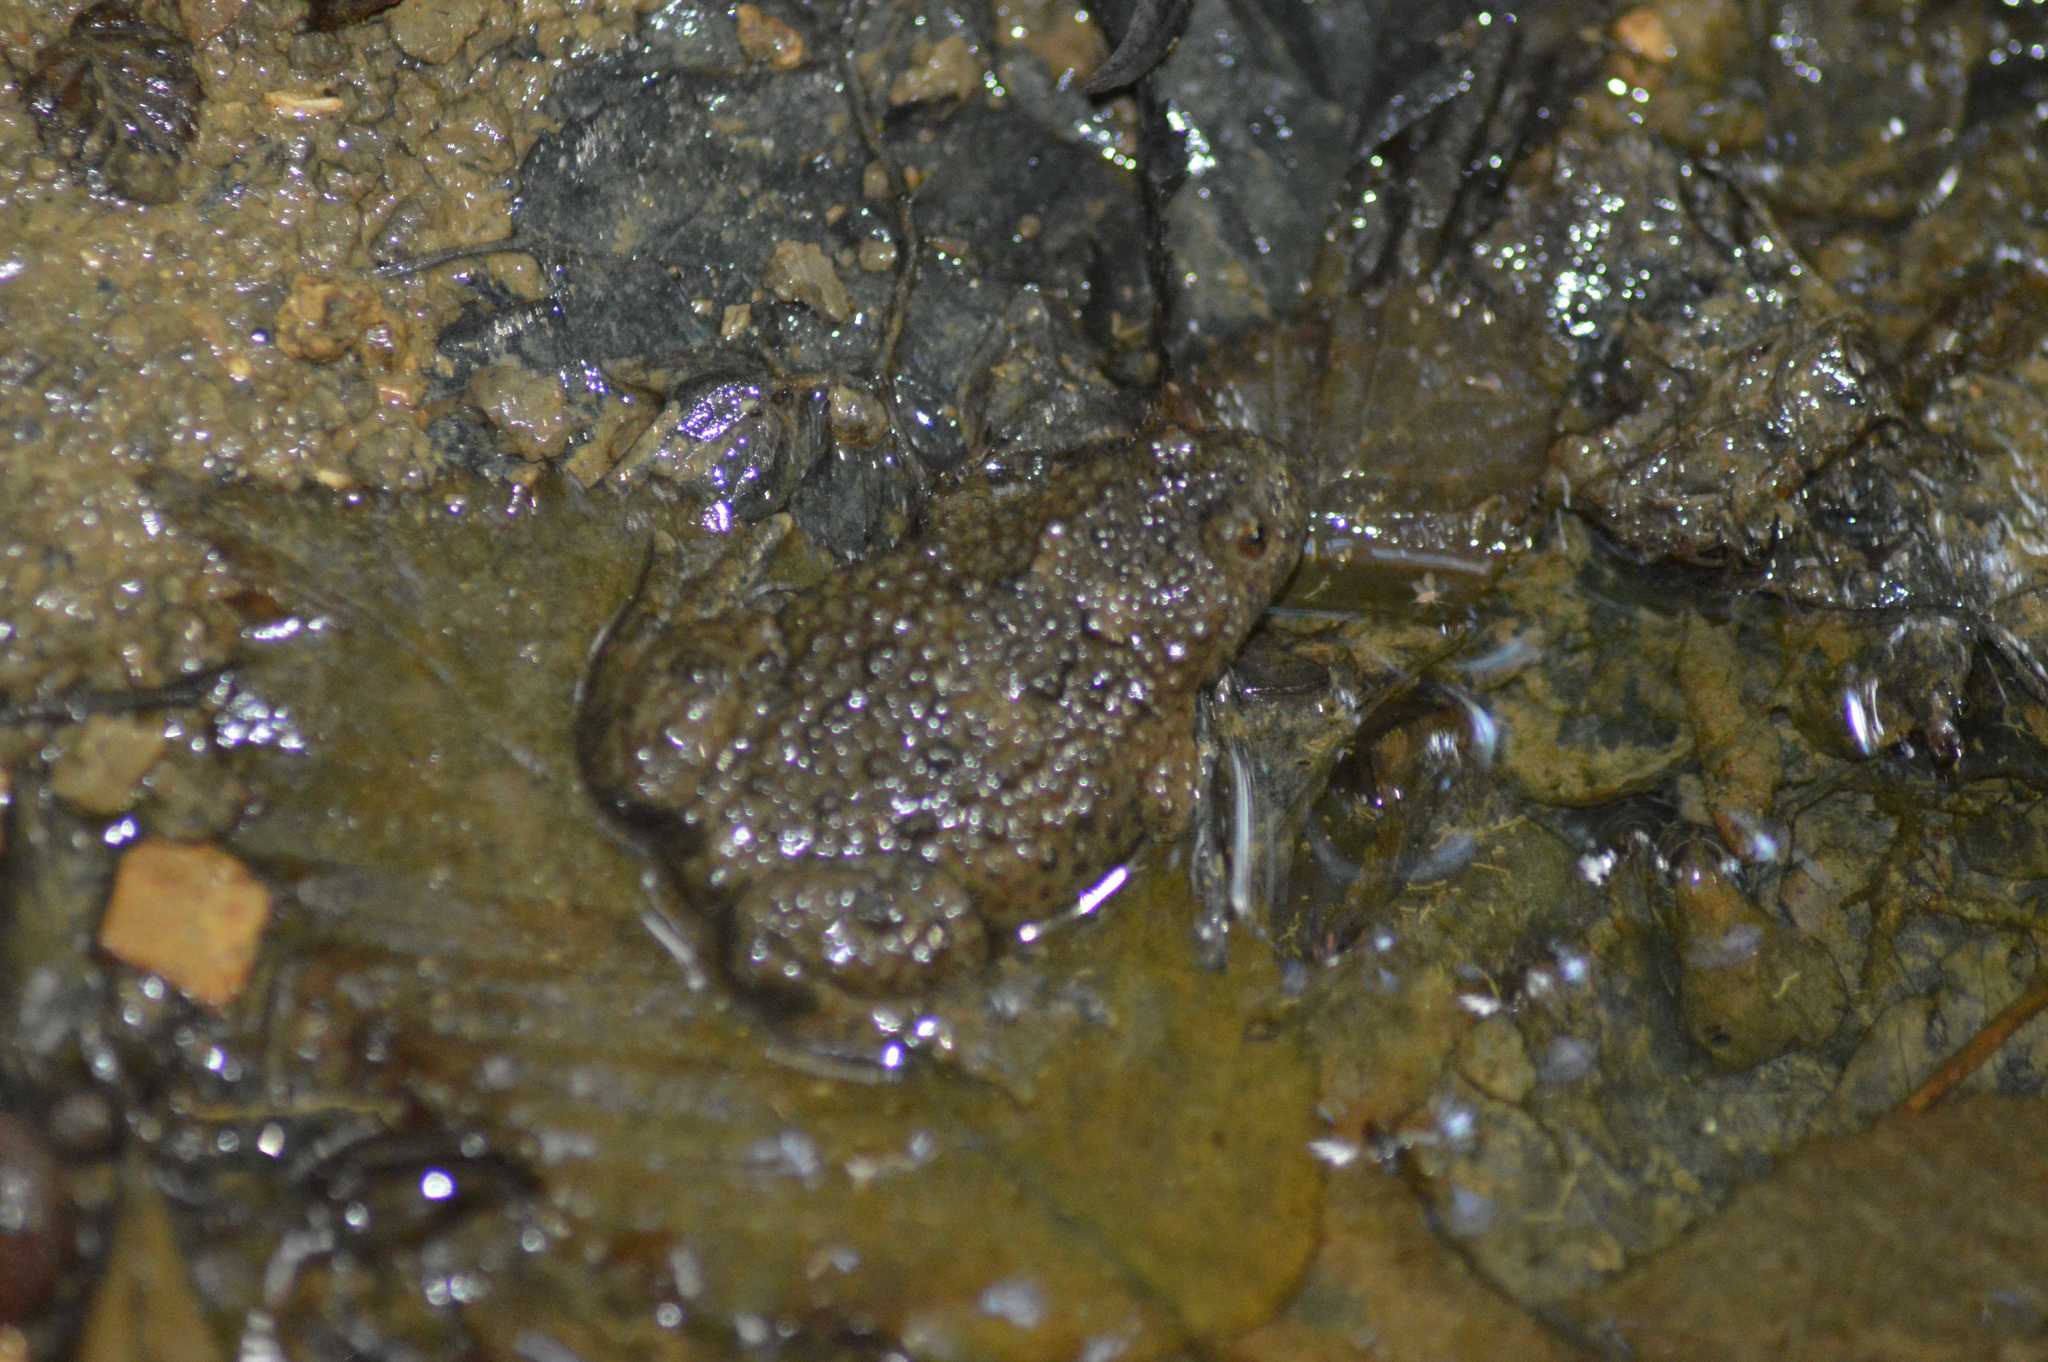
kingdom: Animalia
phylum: Chordata
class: Amphibia
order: Anura
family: Bombinatoridae
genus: Bombina
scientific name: Bombina variegata
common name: Yellow-bellied toad
